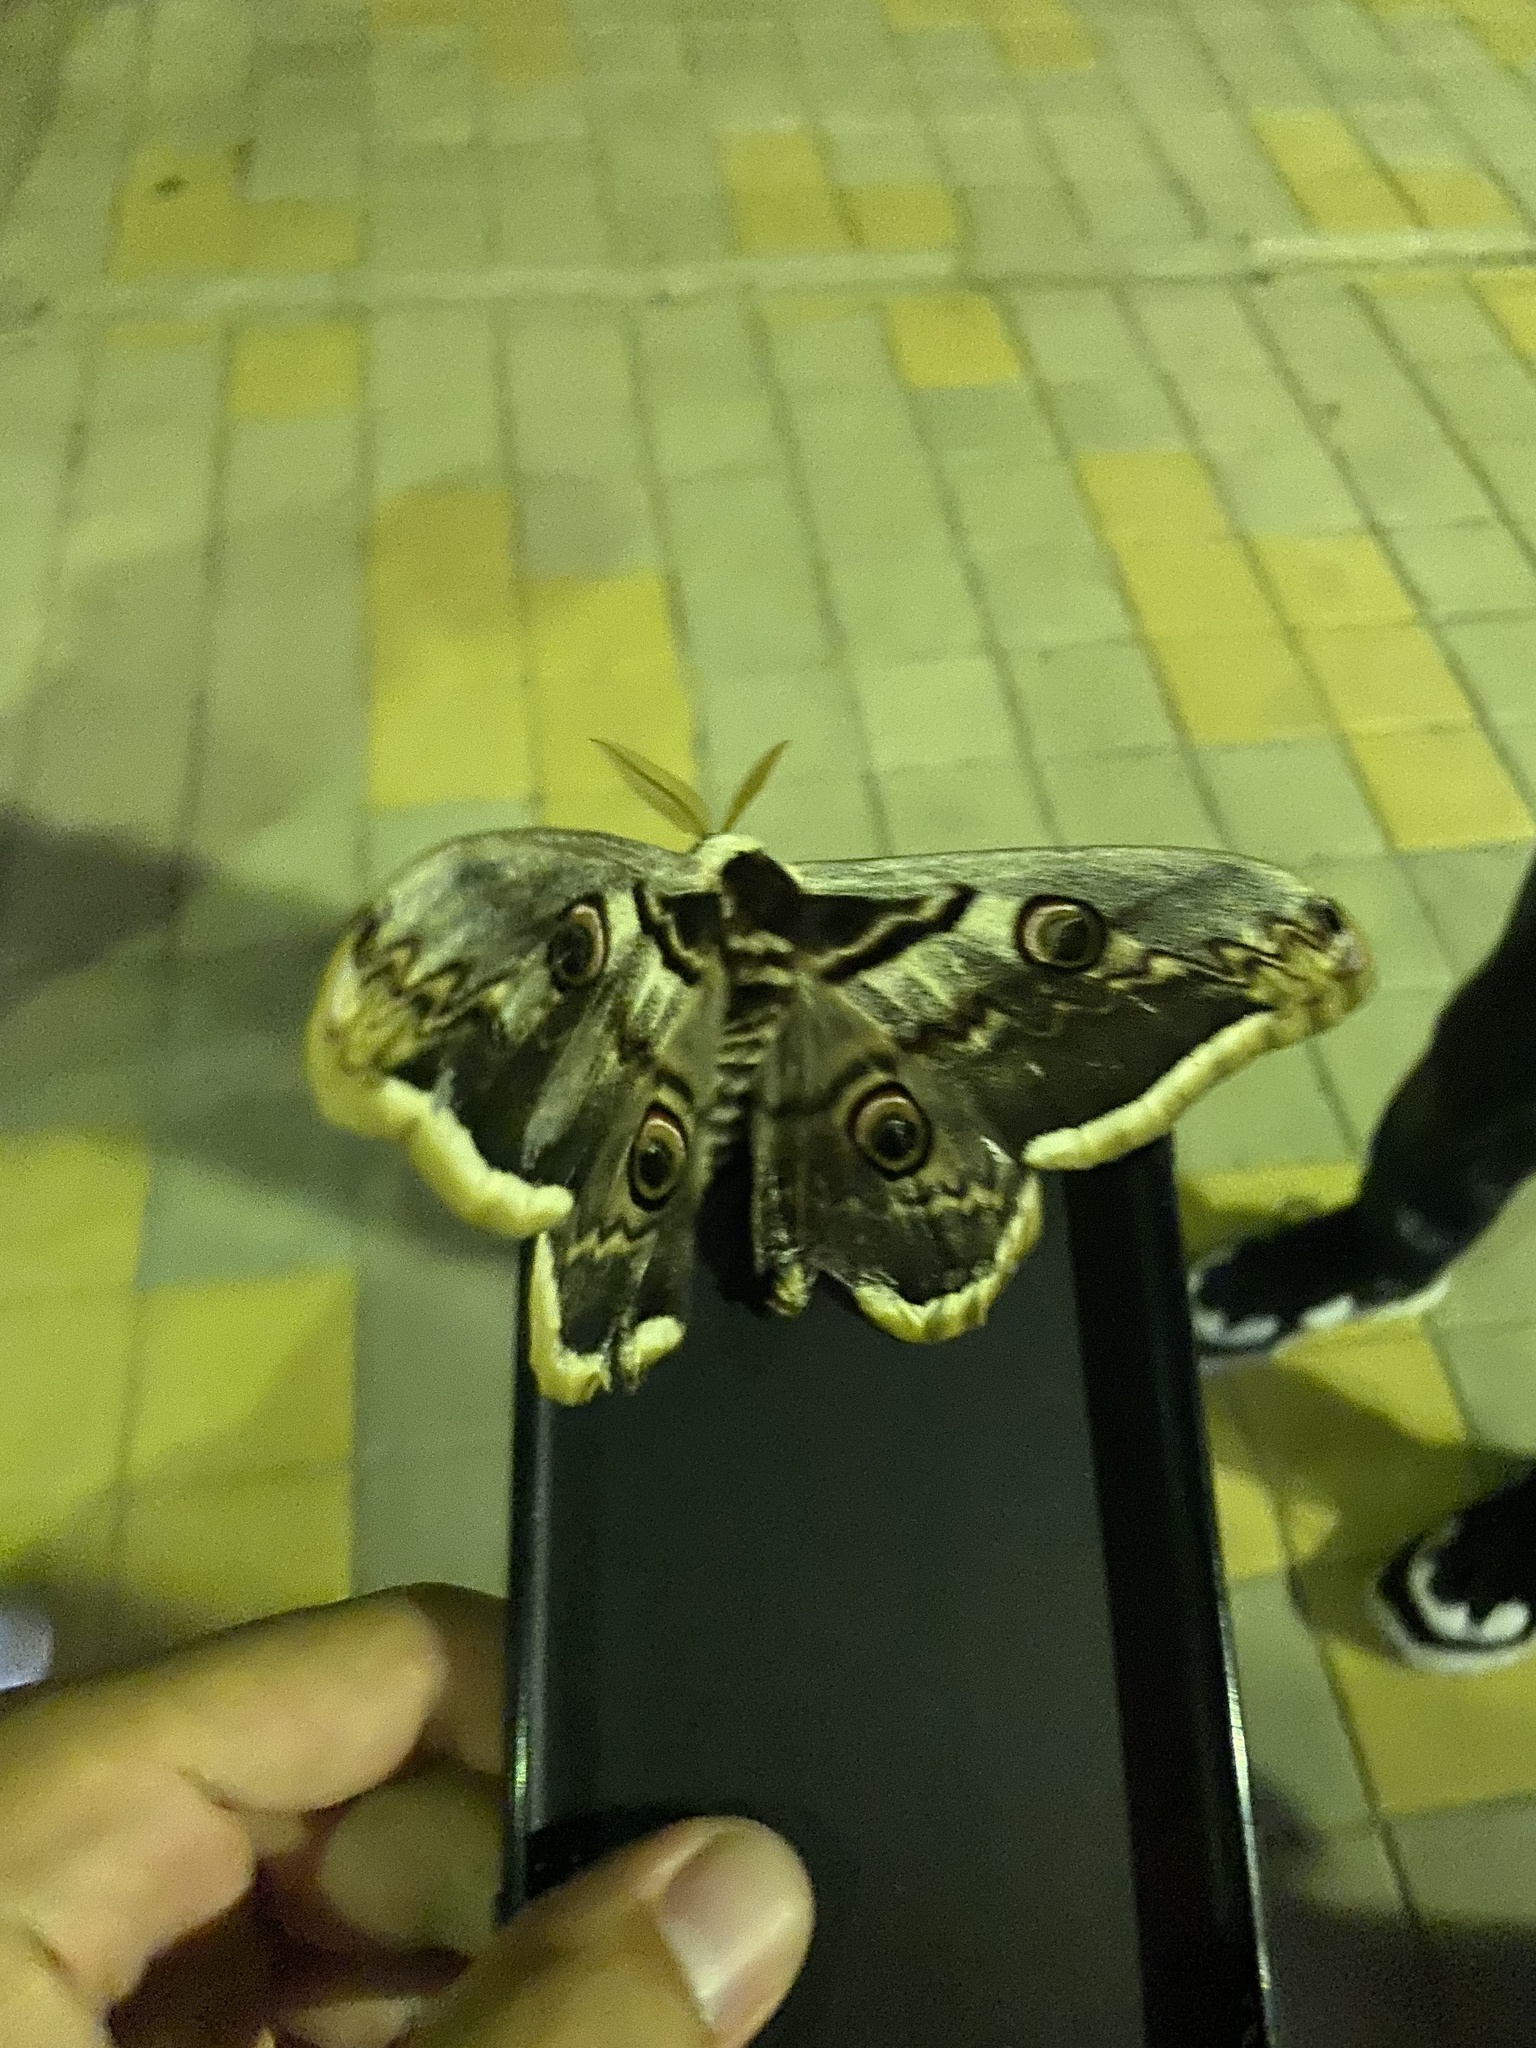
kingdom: Animalia
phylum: Arthropoda
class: Insecta
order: Lepidoptera
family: Saturniidae
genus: Saturnia
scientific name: Saturnia pyri
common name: Great peacock moth
